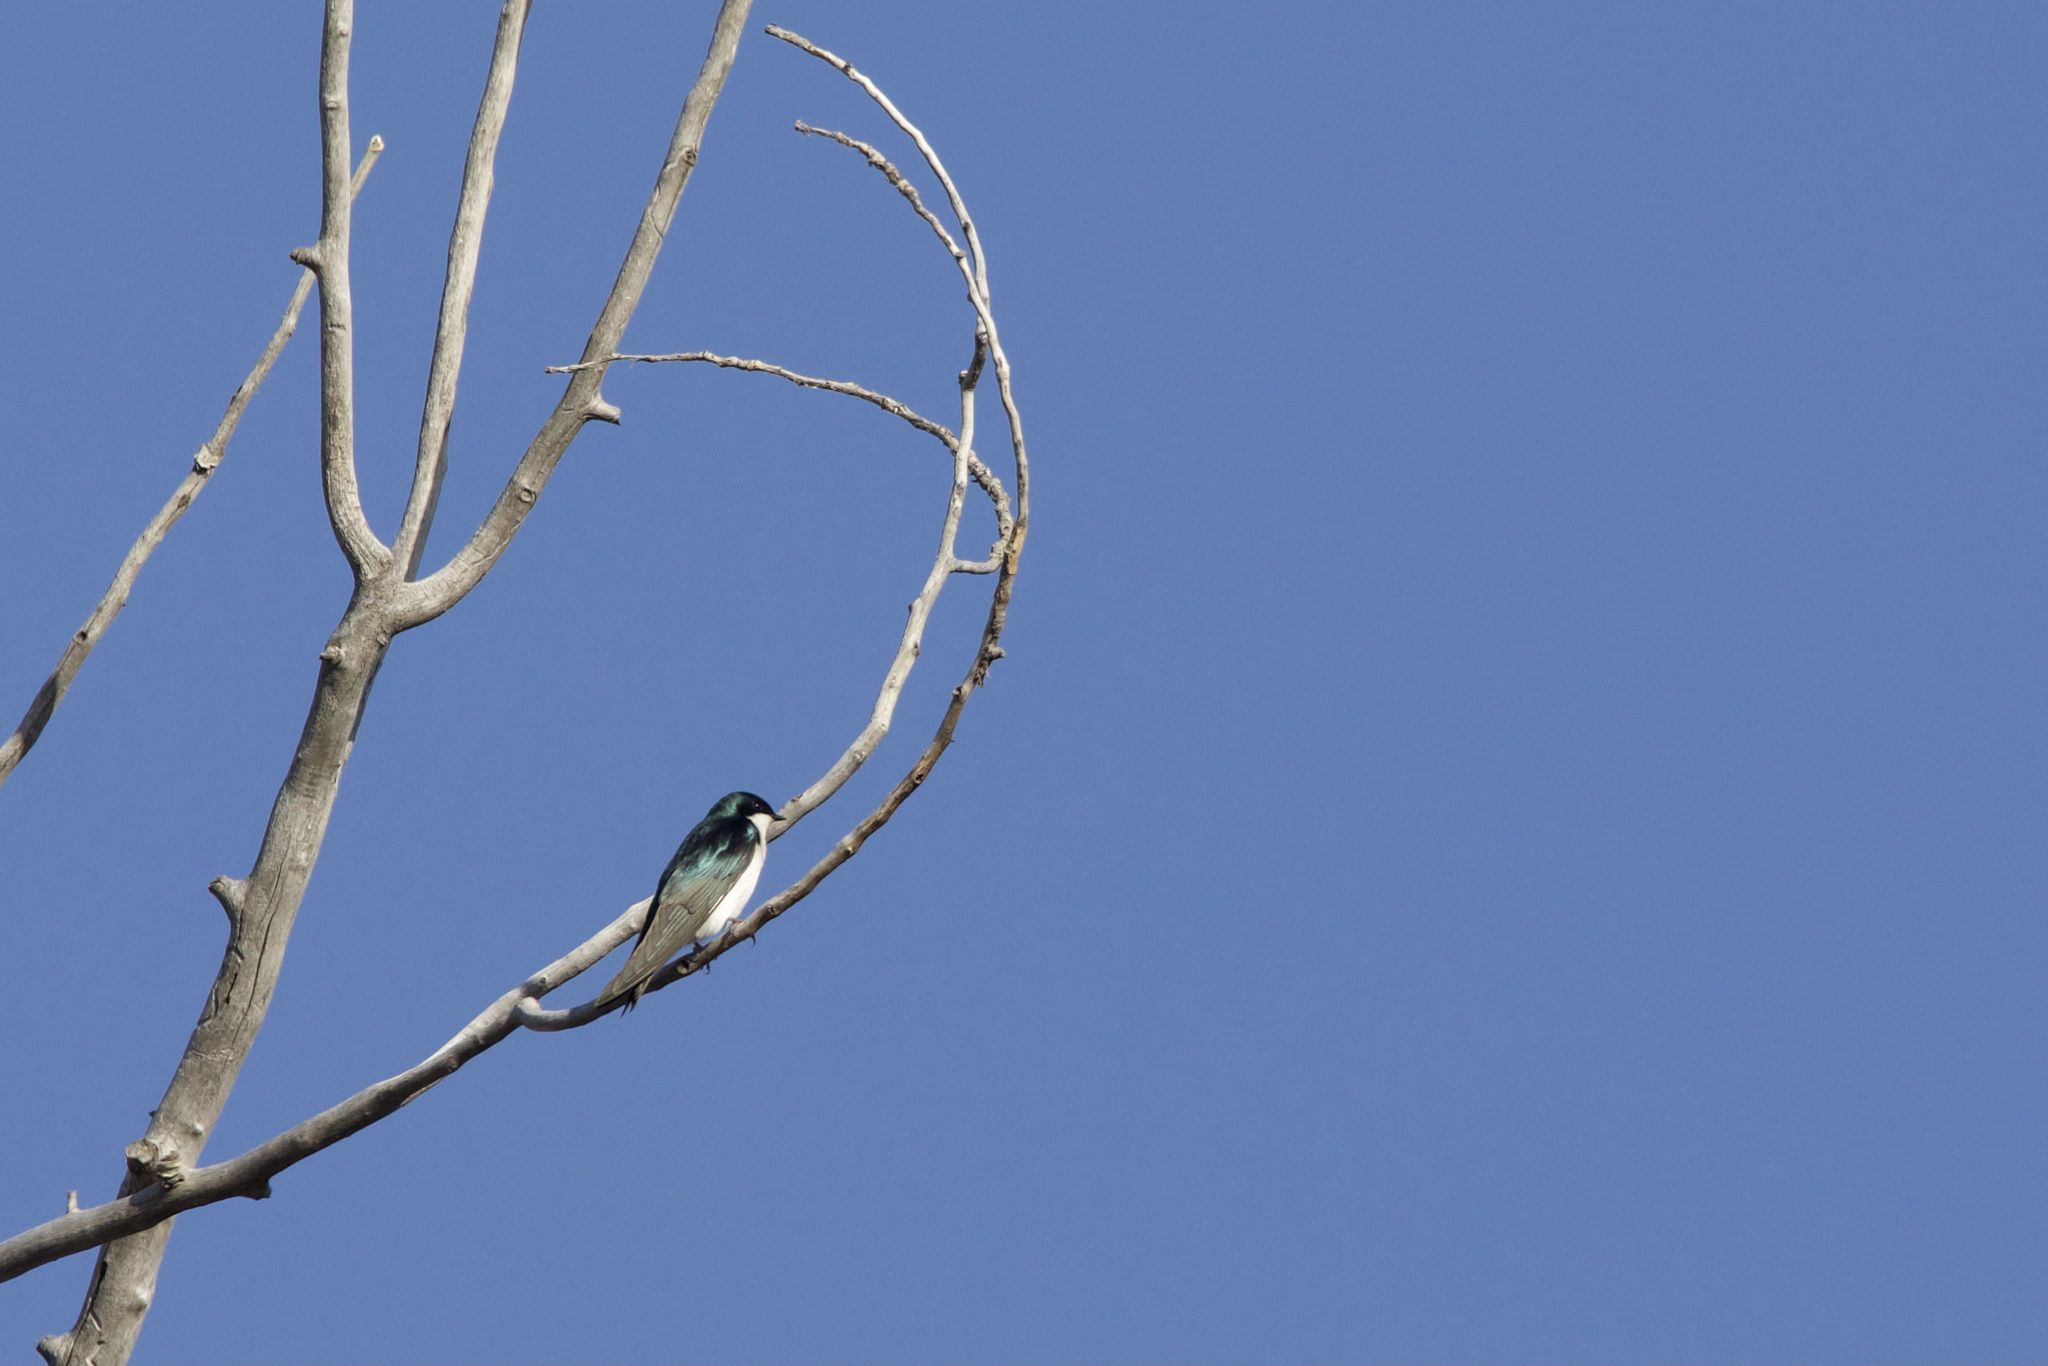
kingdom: Animalia
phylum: Chordata
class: Aves
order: Passeriformes
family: Hirundinidae
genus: Tachycineta
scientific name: Tachycineta bicolor
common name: Tree swallow
